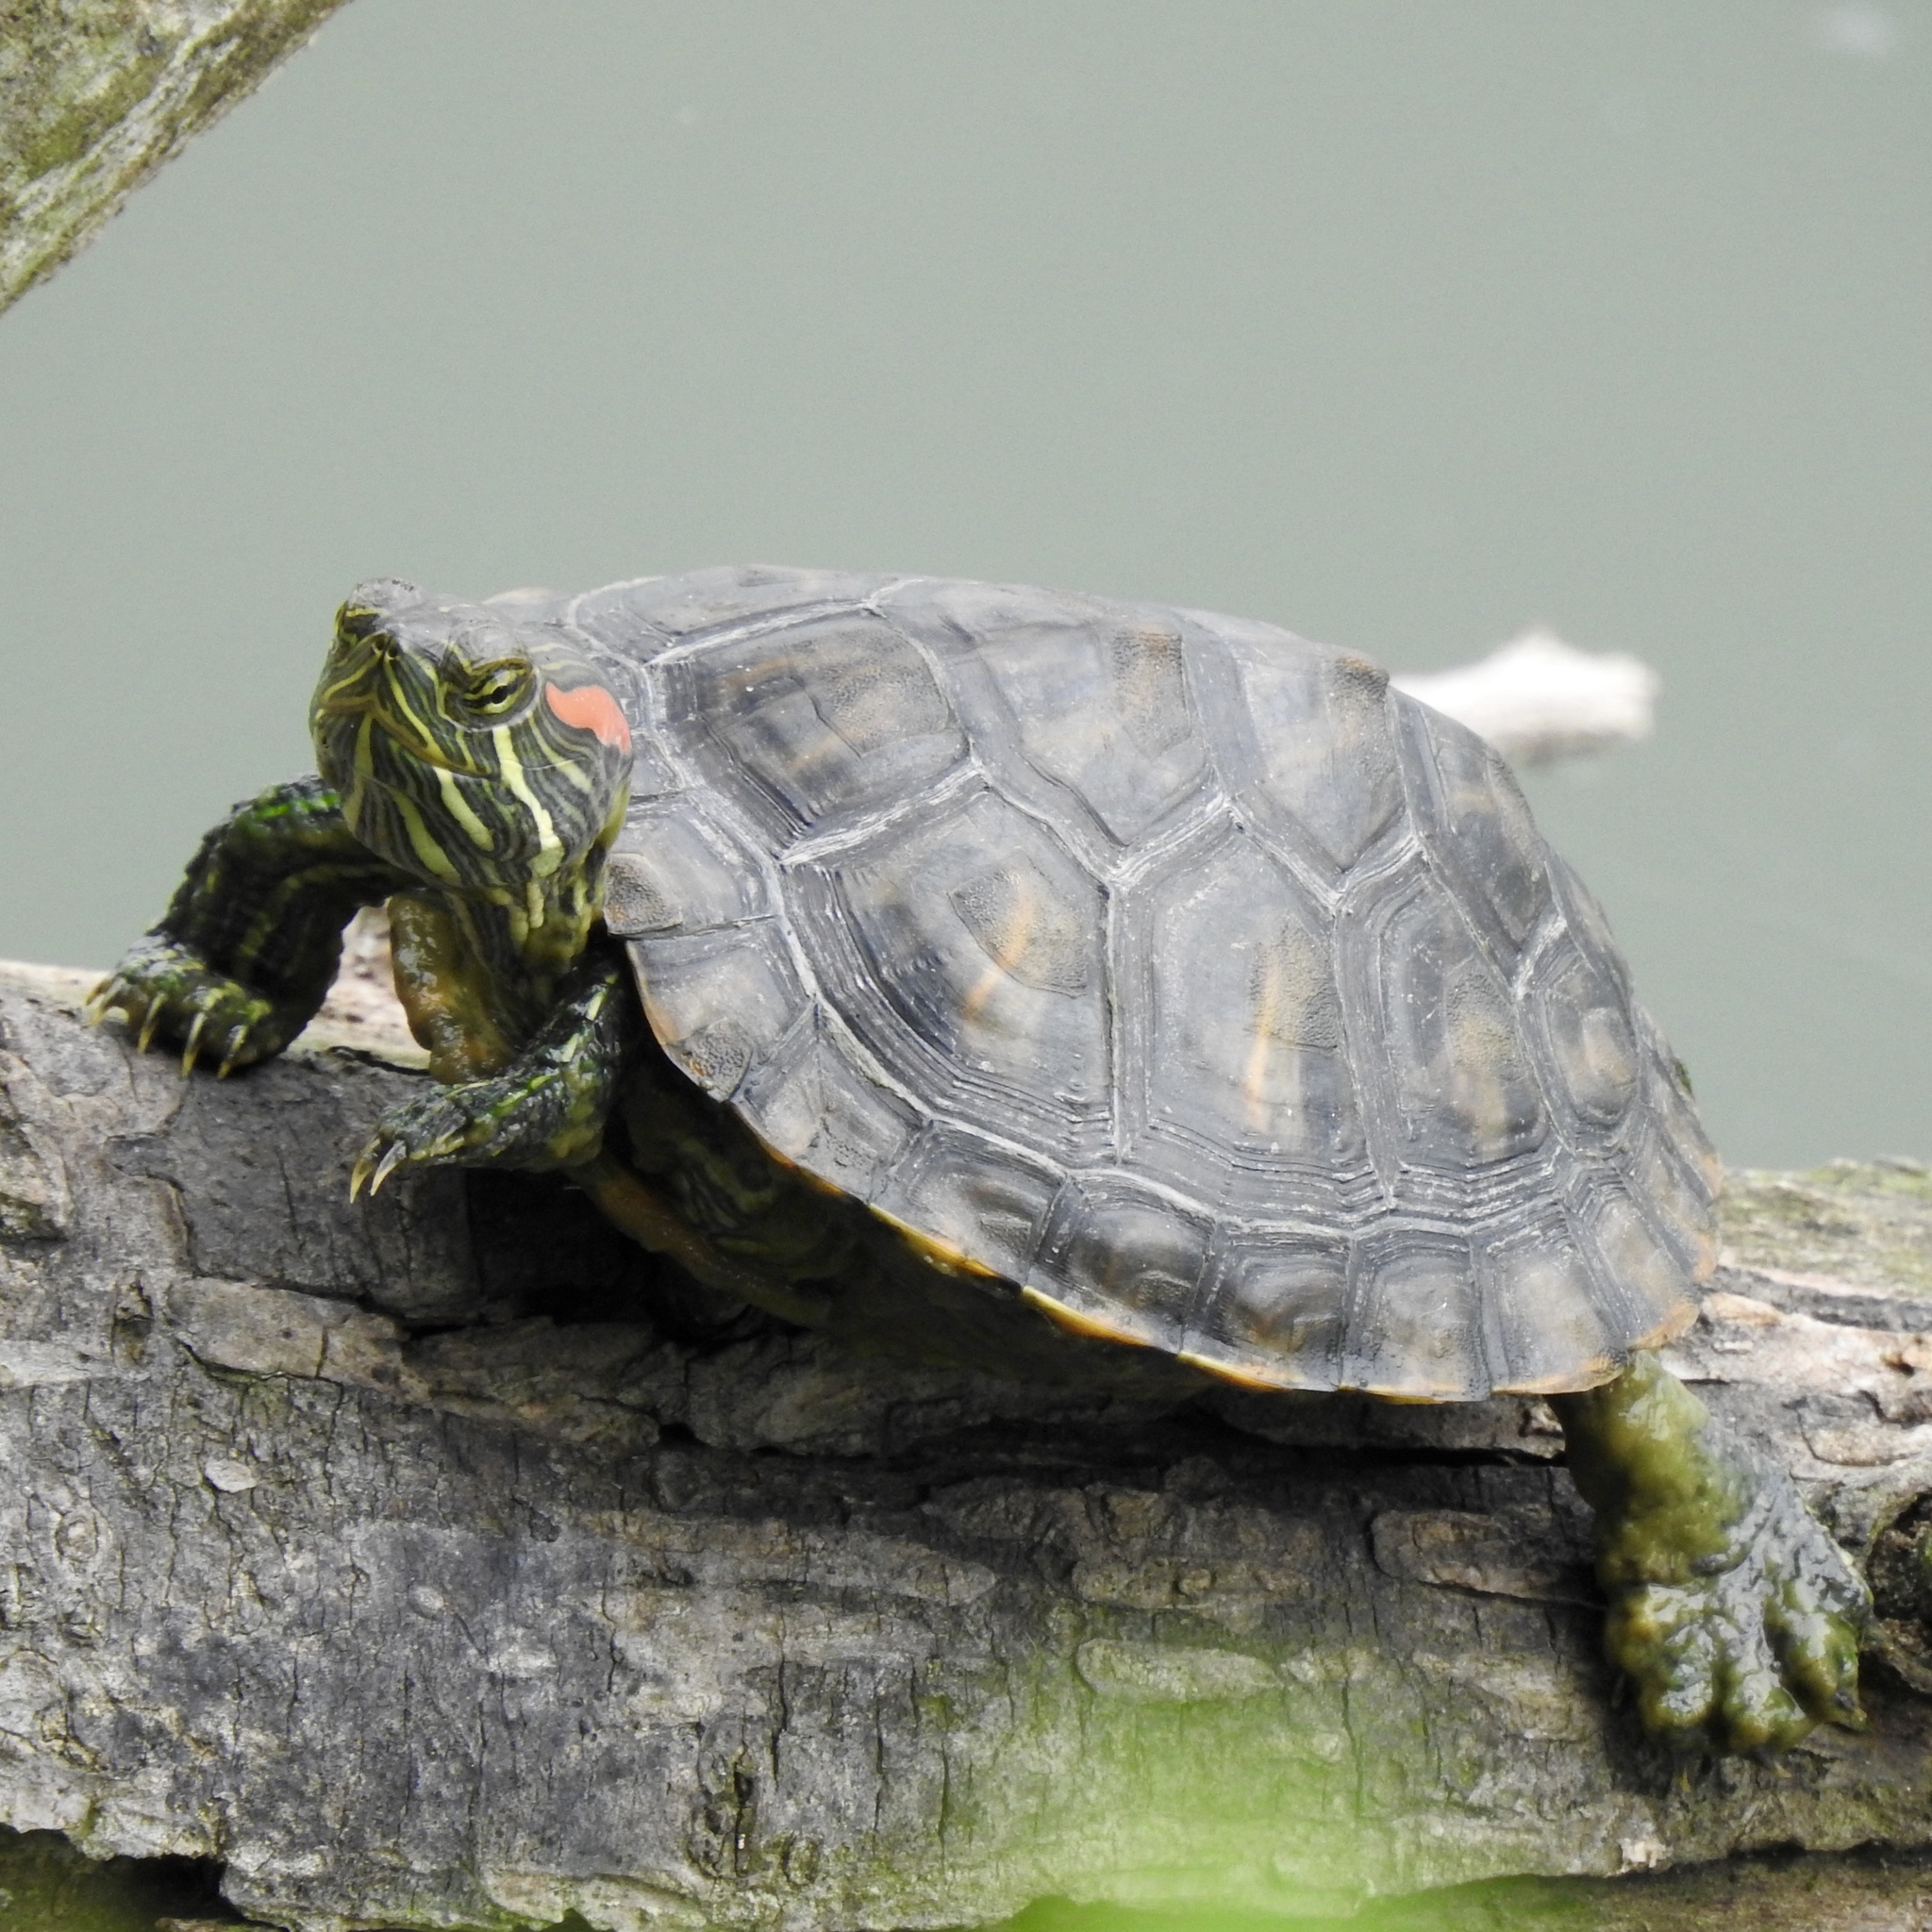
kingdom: Animalia
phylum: Chordata
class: Testudines
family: Emydidae
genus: Trachemys
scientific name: Trachemys scripta
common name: Slider
